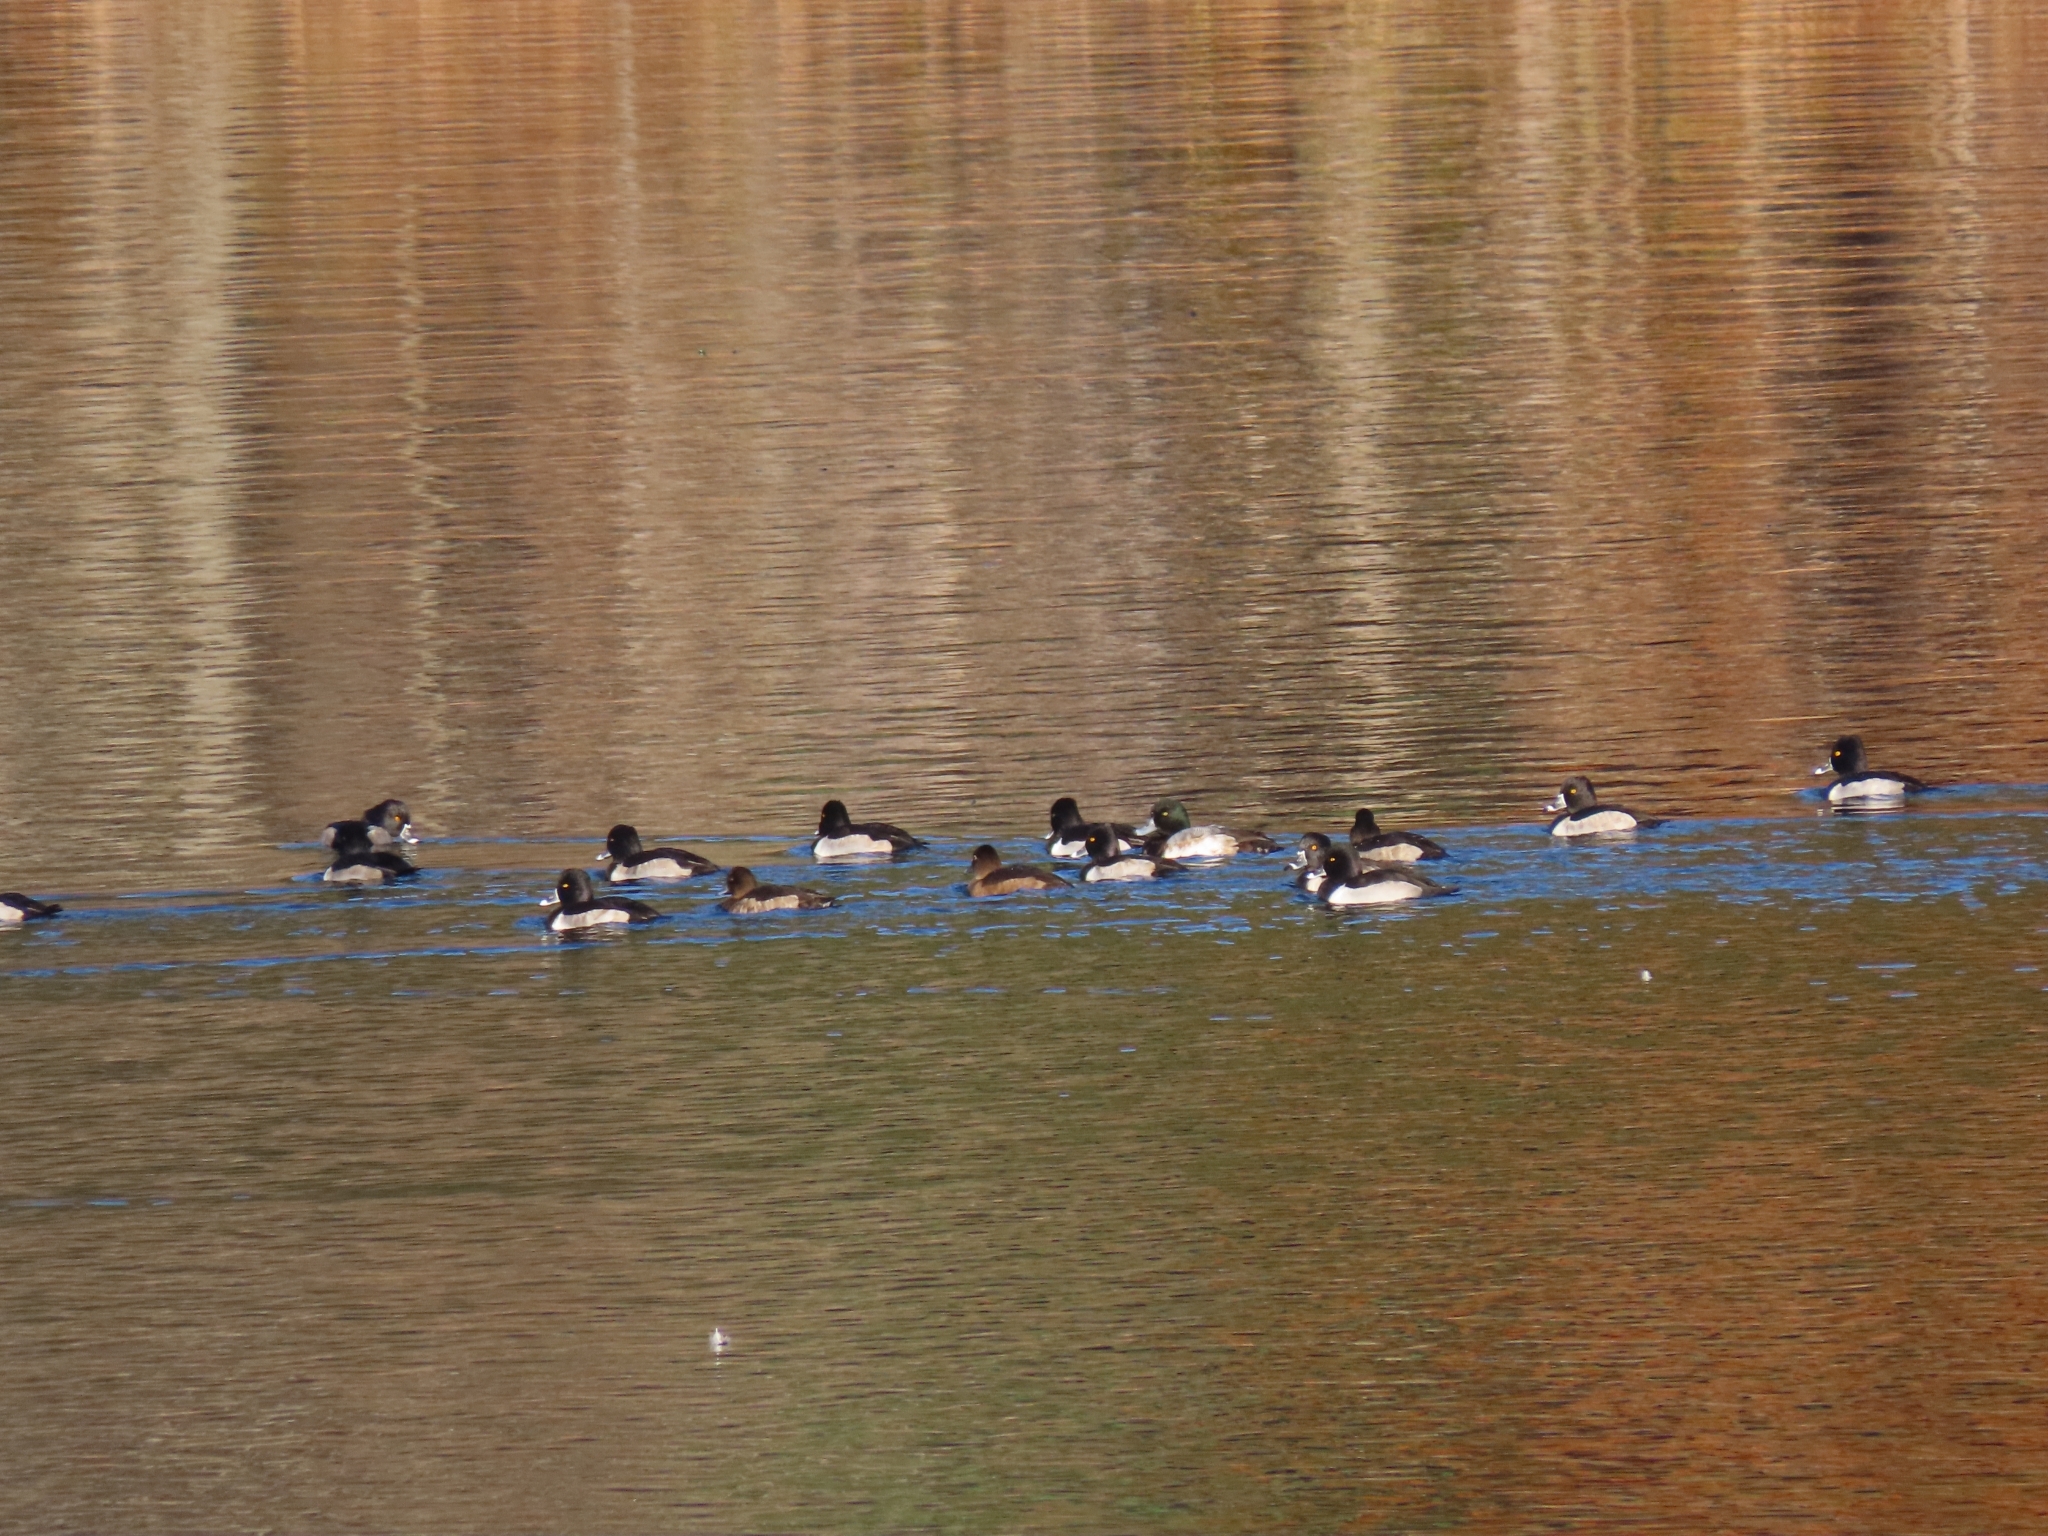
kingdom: Animalia
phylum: Chordata
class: Aves
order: Anseriformes
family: Anatidae
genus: Aythya
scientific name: Aythya fuligula
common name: Tufted duck
